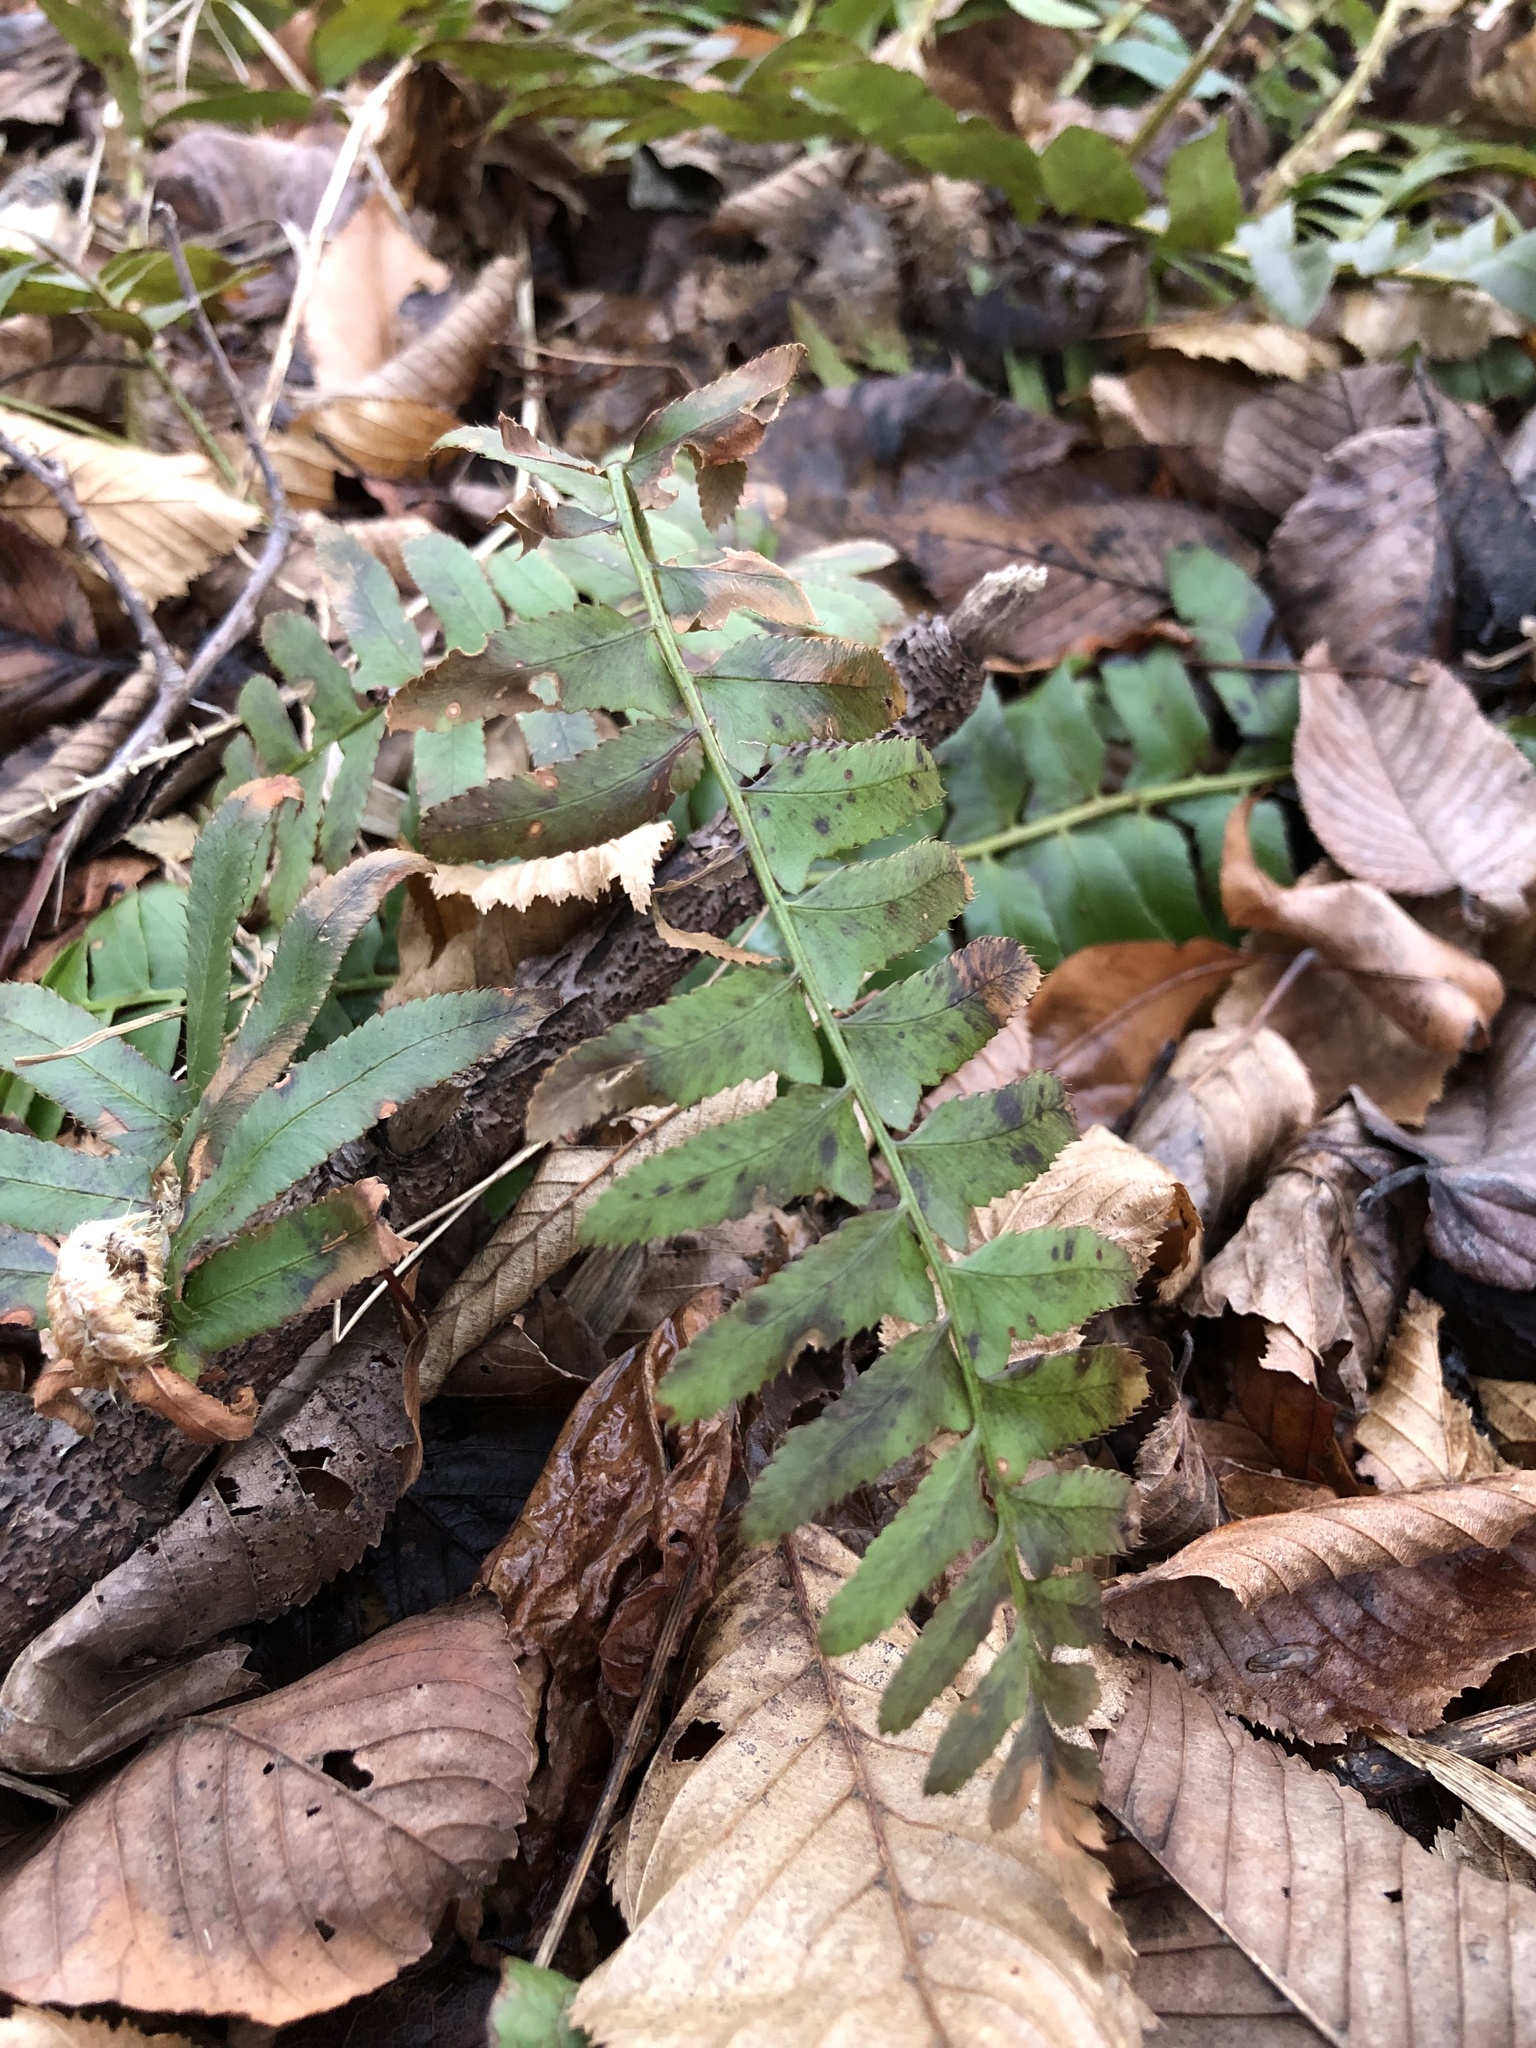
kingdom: Plantae
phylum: Tracheophyta
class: Polypodiopsida
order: Polypodiales
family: Dryopteridaceae
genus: Polystichum
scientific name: Polystichum acrostichoides
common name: Christmas fern
